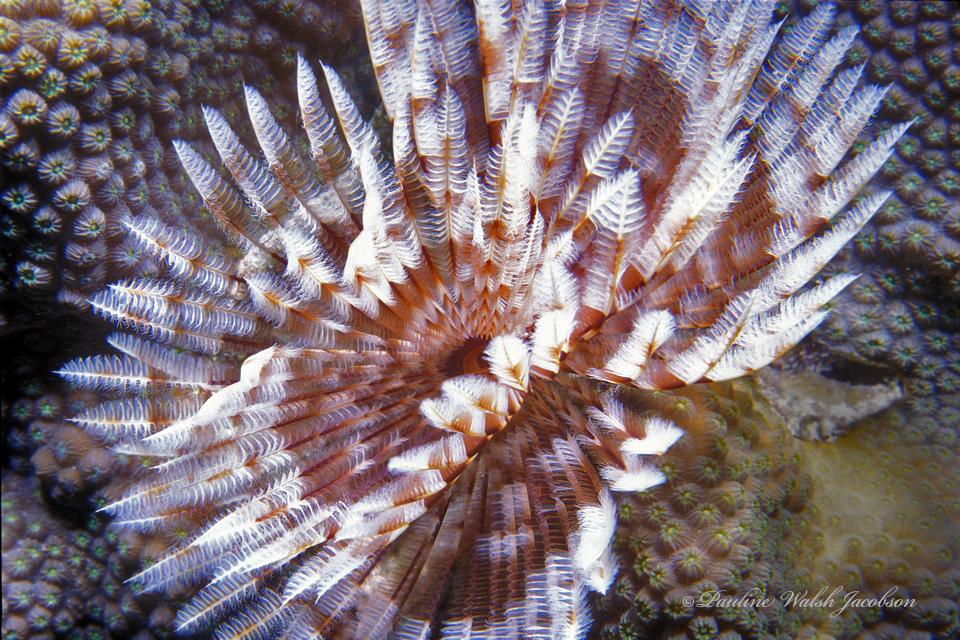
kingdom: Animalia
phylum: Annelida
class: Polychaeta
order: Sabellida
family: Sabellidae
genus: Sabellastarte
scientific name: Sabellastarte magnifica
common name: Giant feather-duster worm
